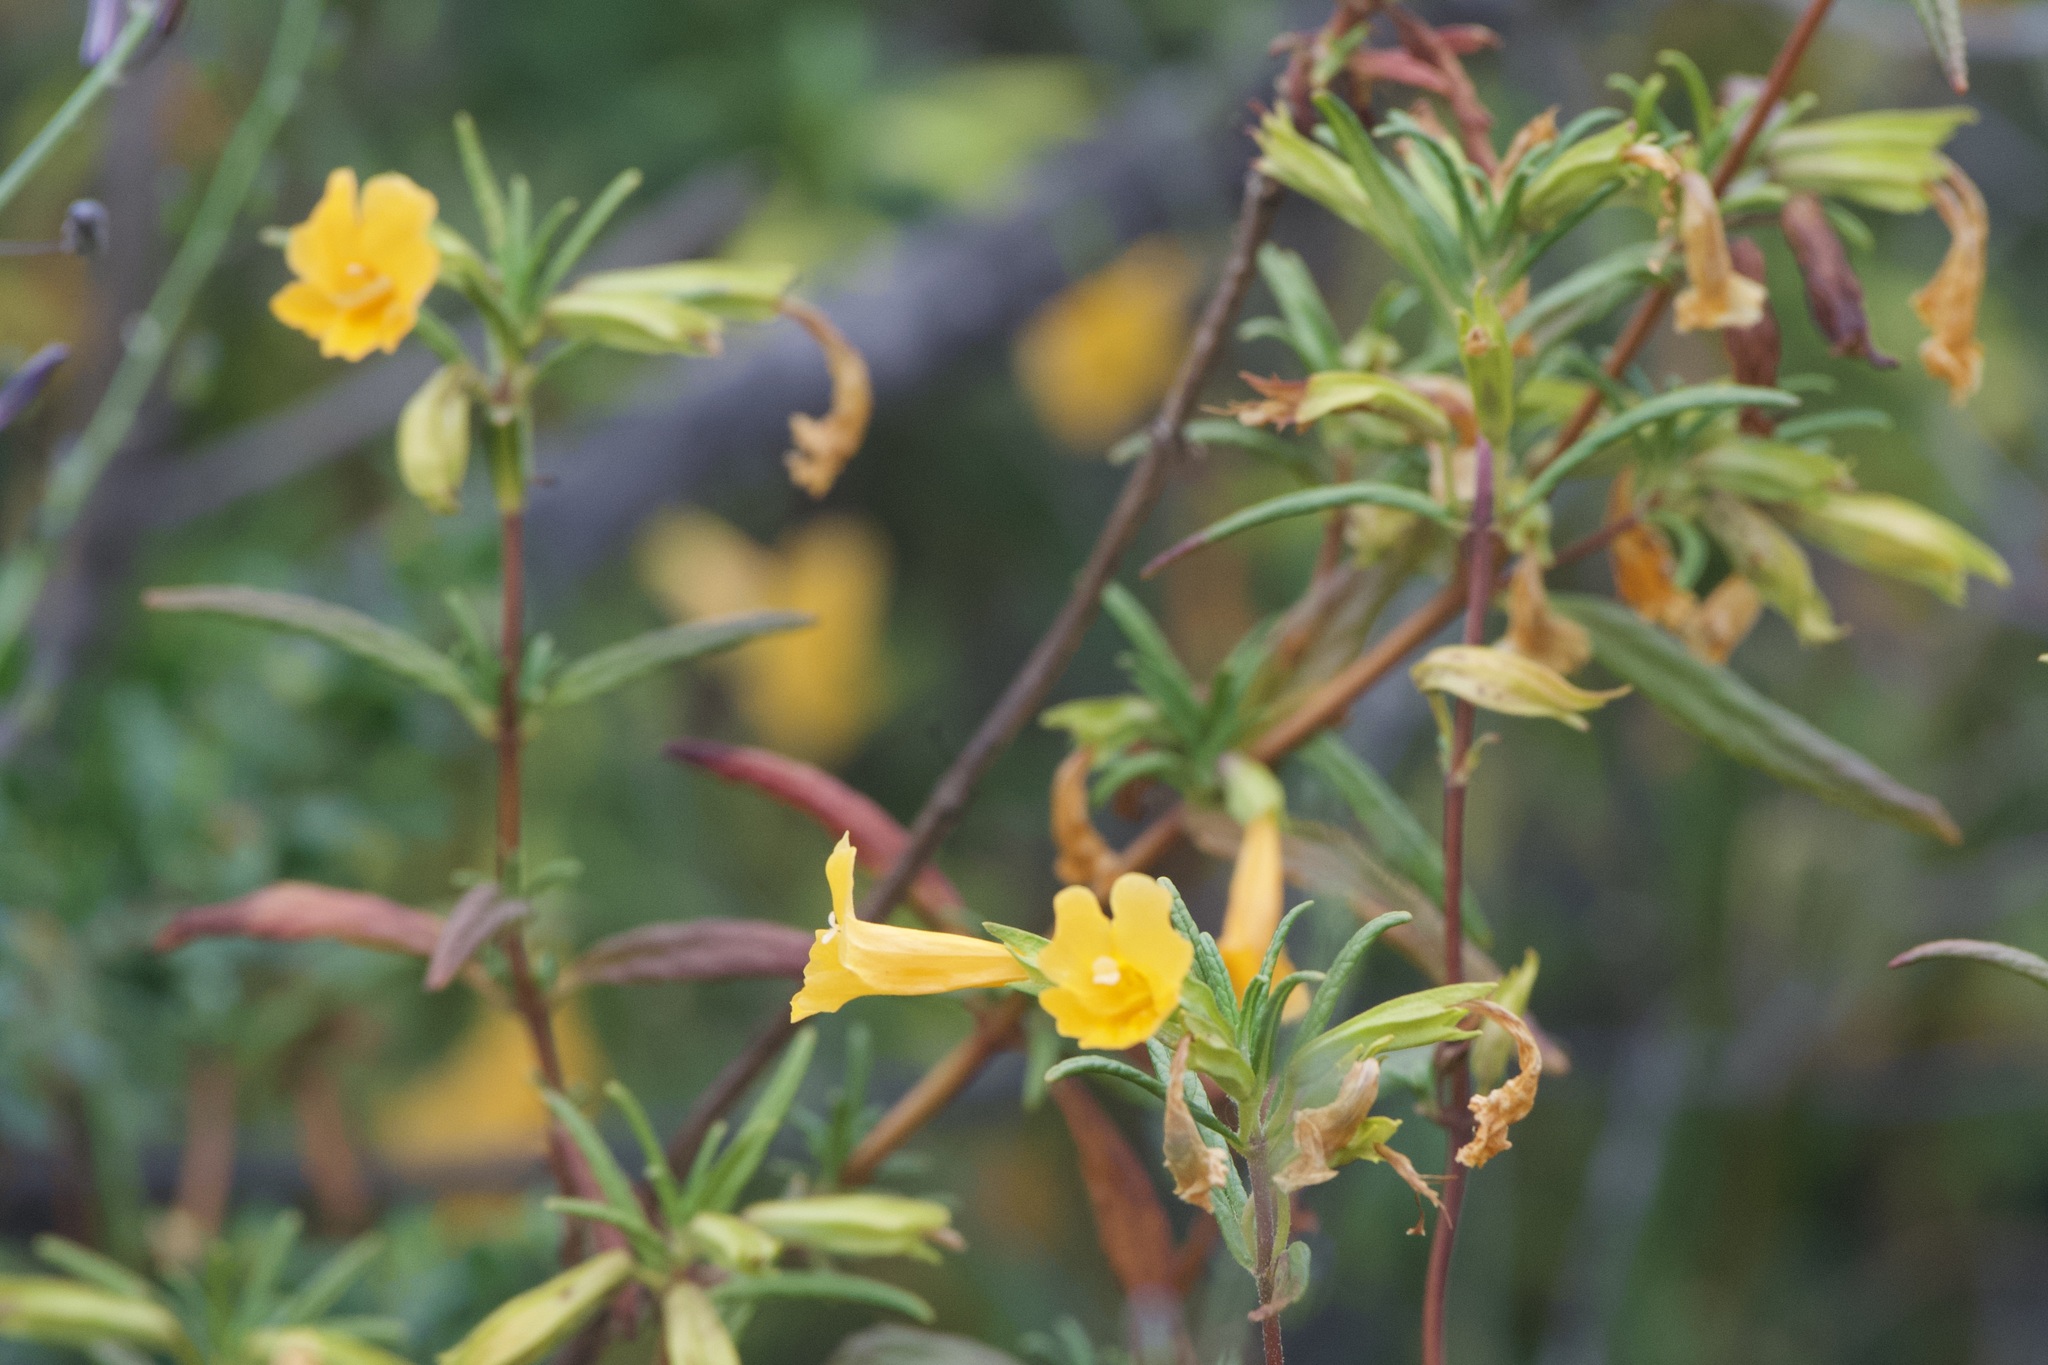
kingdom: Plantae
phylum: Tracheophyta
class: Magnoliopsida
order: Lamiales
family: Phrymaceae
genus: Diplacus
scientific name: Diplacus aurantiacus
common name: Bush monkey-flower
